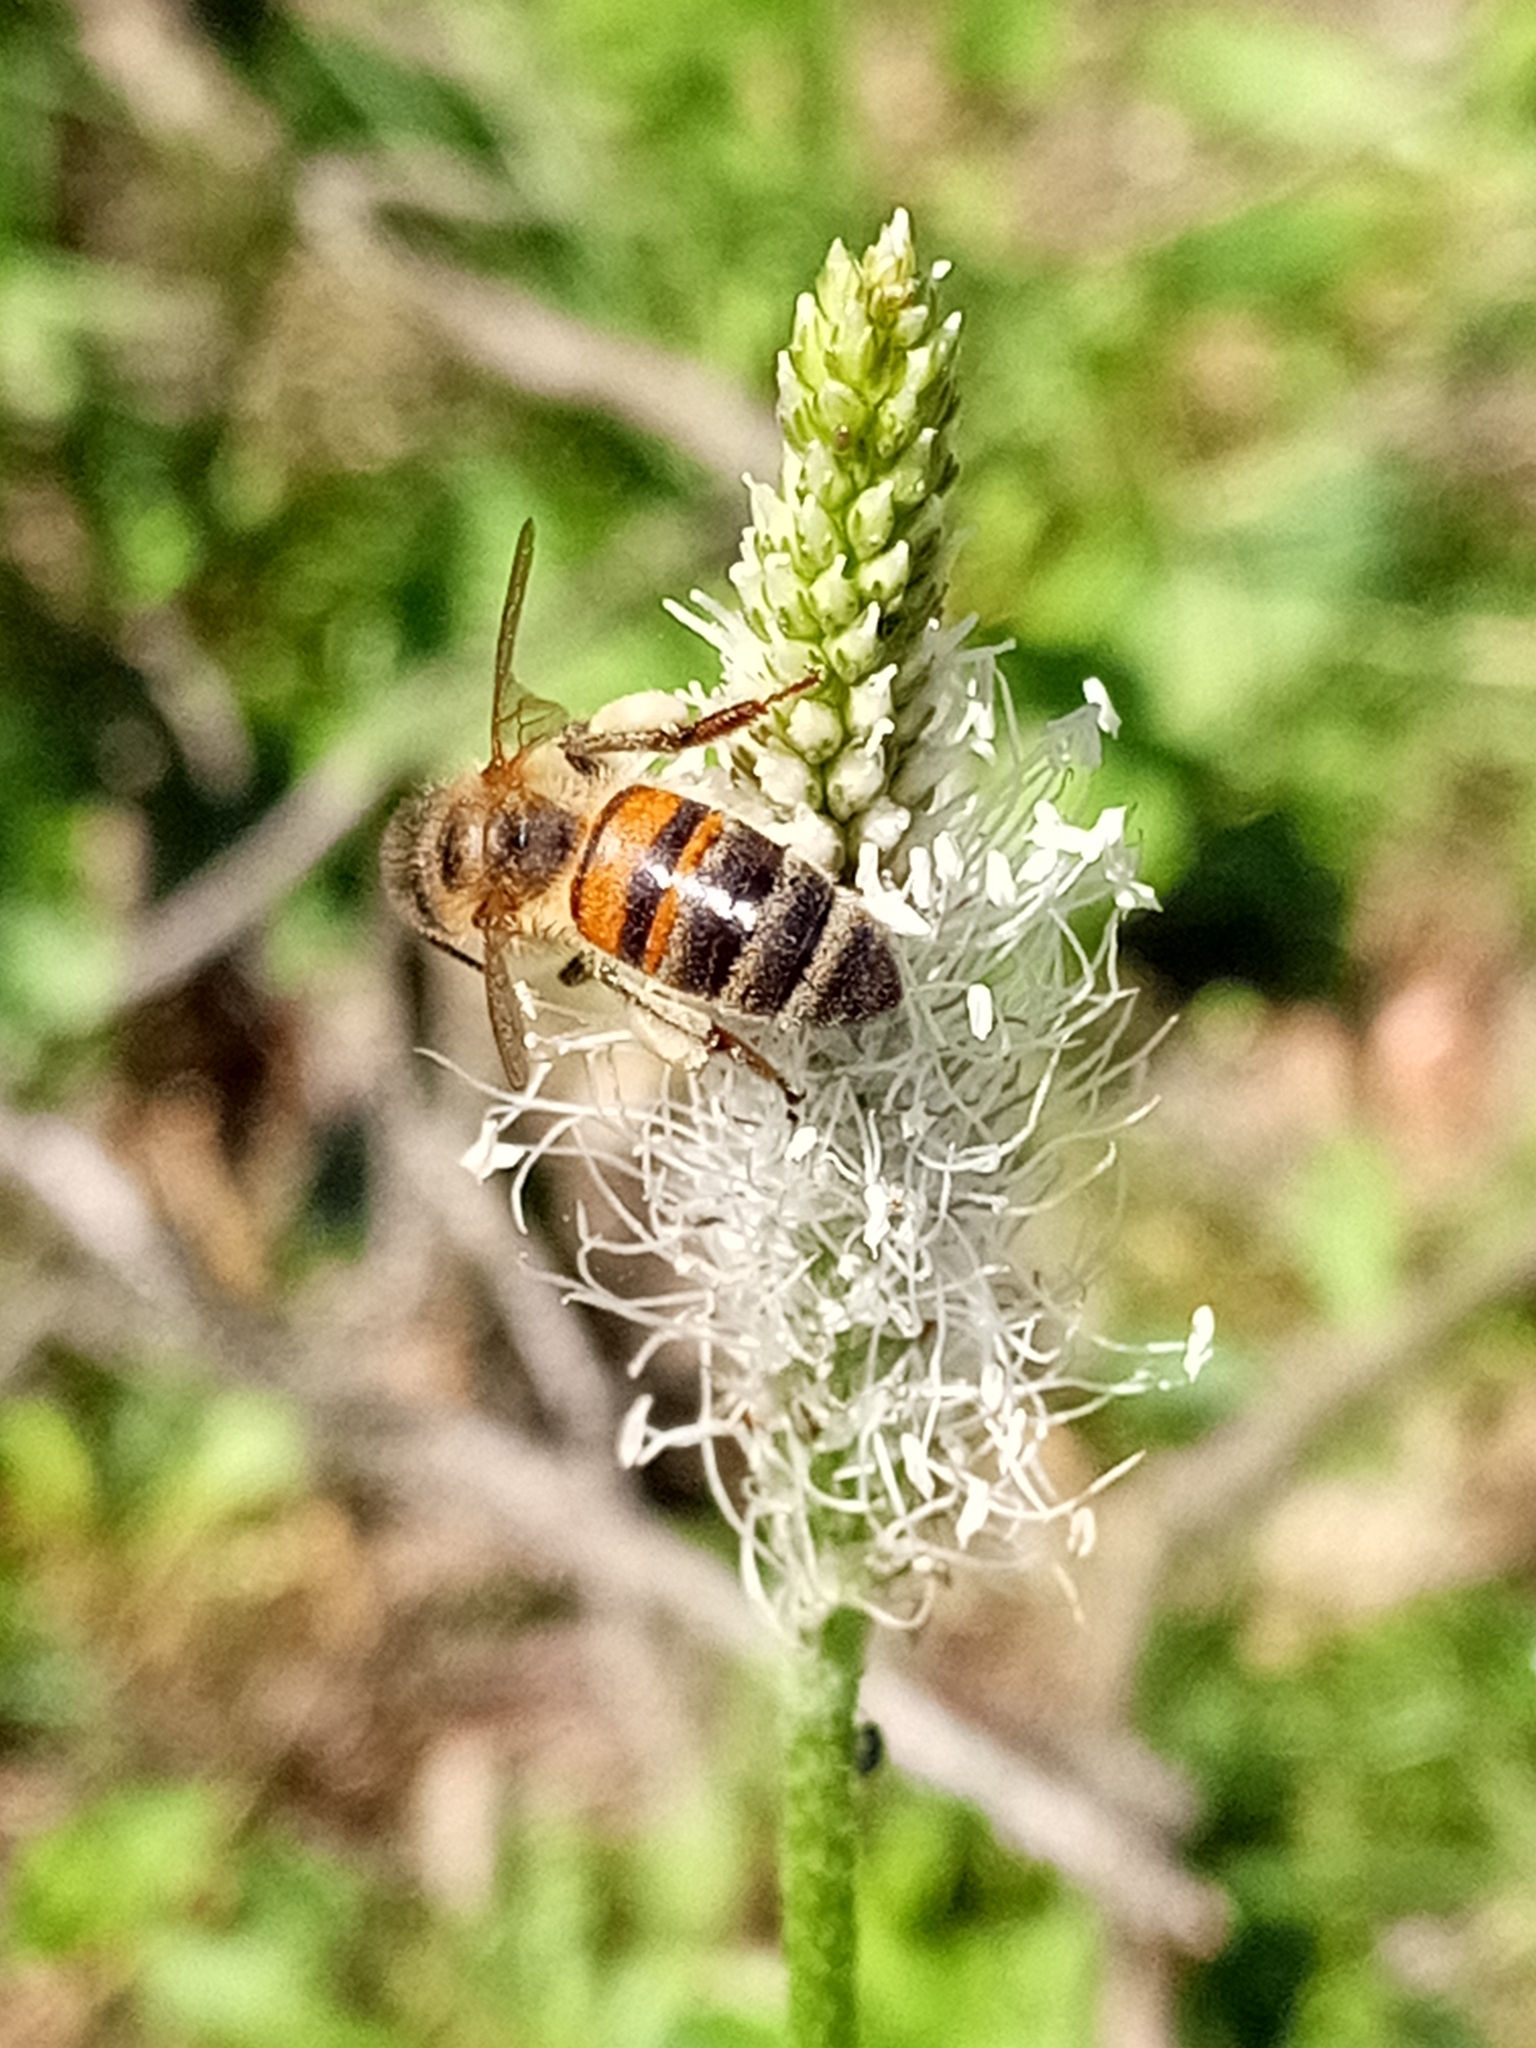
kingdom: Animalia
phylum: Arthropoda
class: Insecta
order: Hymenoptera
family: Apidae
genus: Apis
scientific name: Apis mellifera
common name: Honey bee
